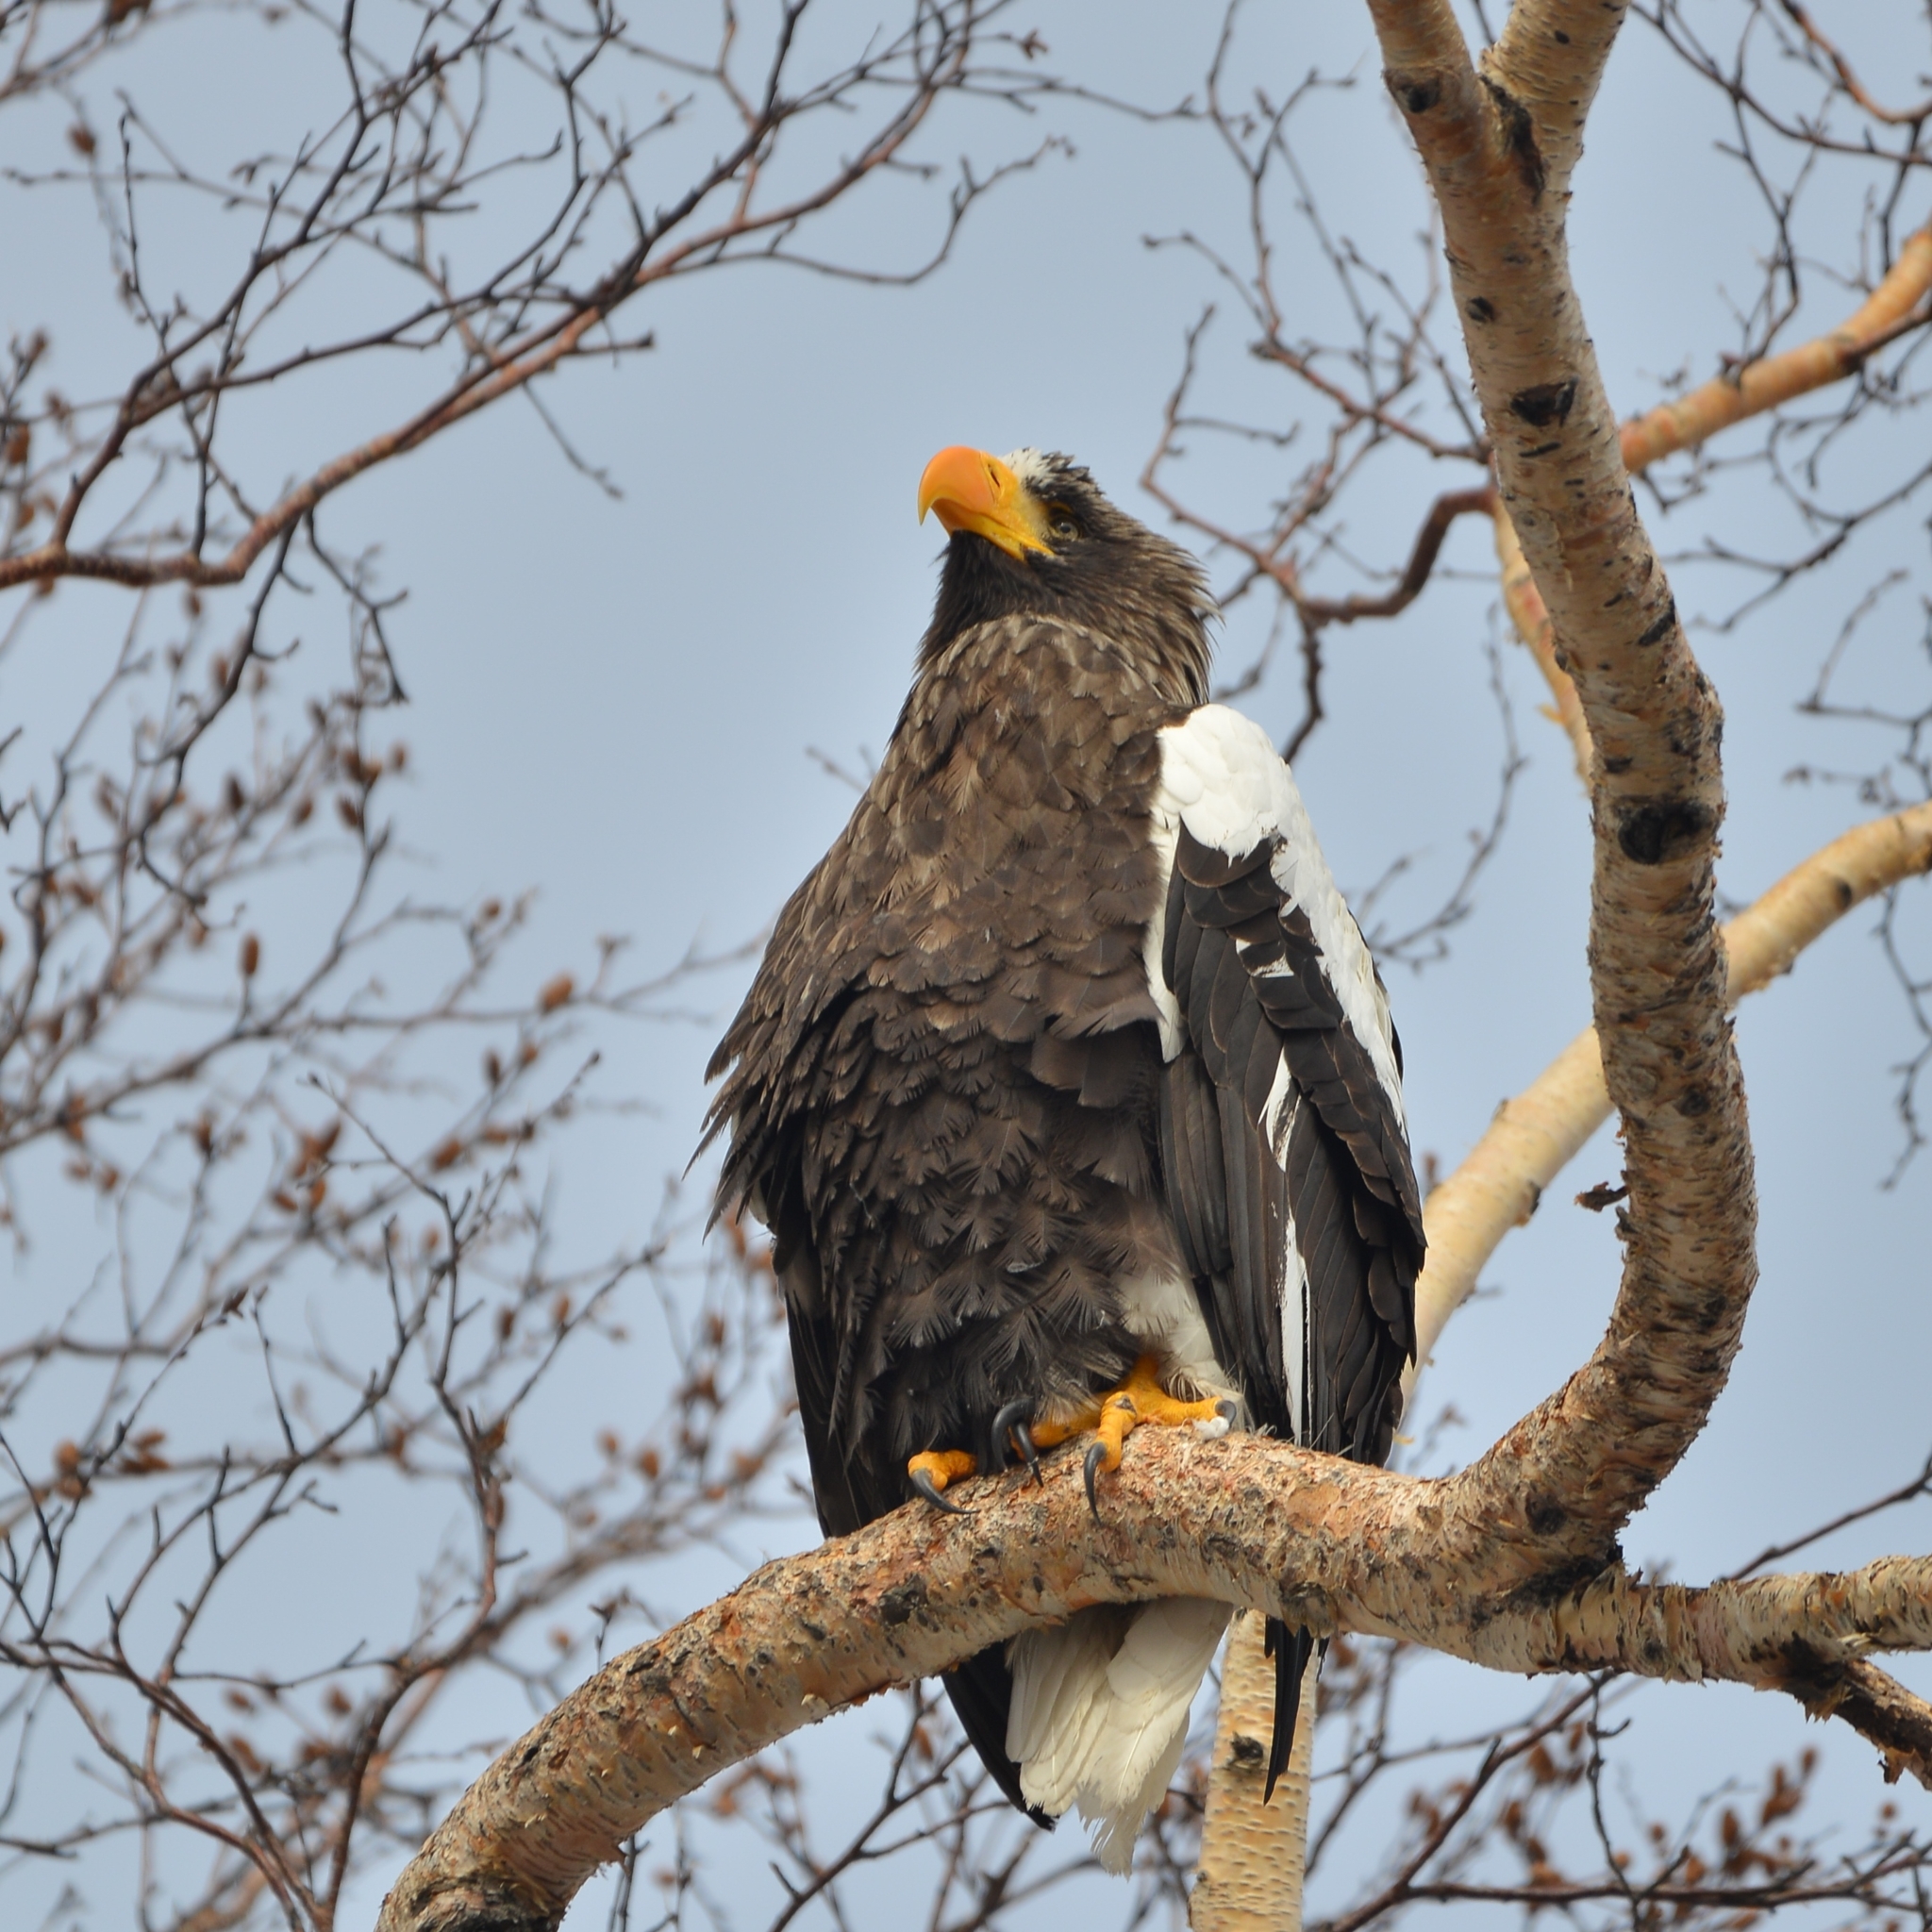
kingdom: Animalia
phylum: Chordata
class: Aves
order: Accipitriformes
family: Accipitridae
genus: Haliaeetus
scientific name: Haliaeetus pelagicus
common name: Steller's sea eagle
